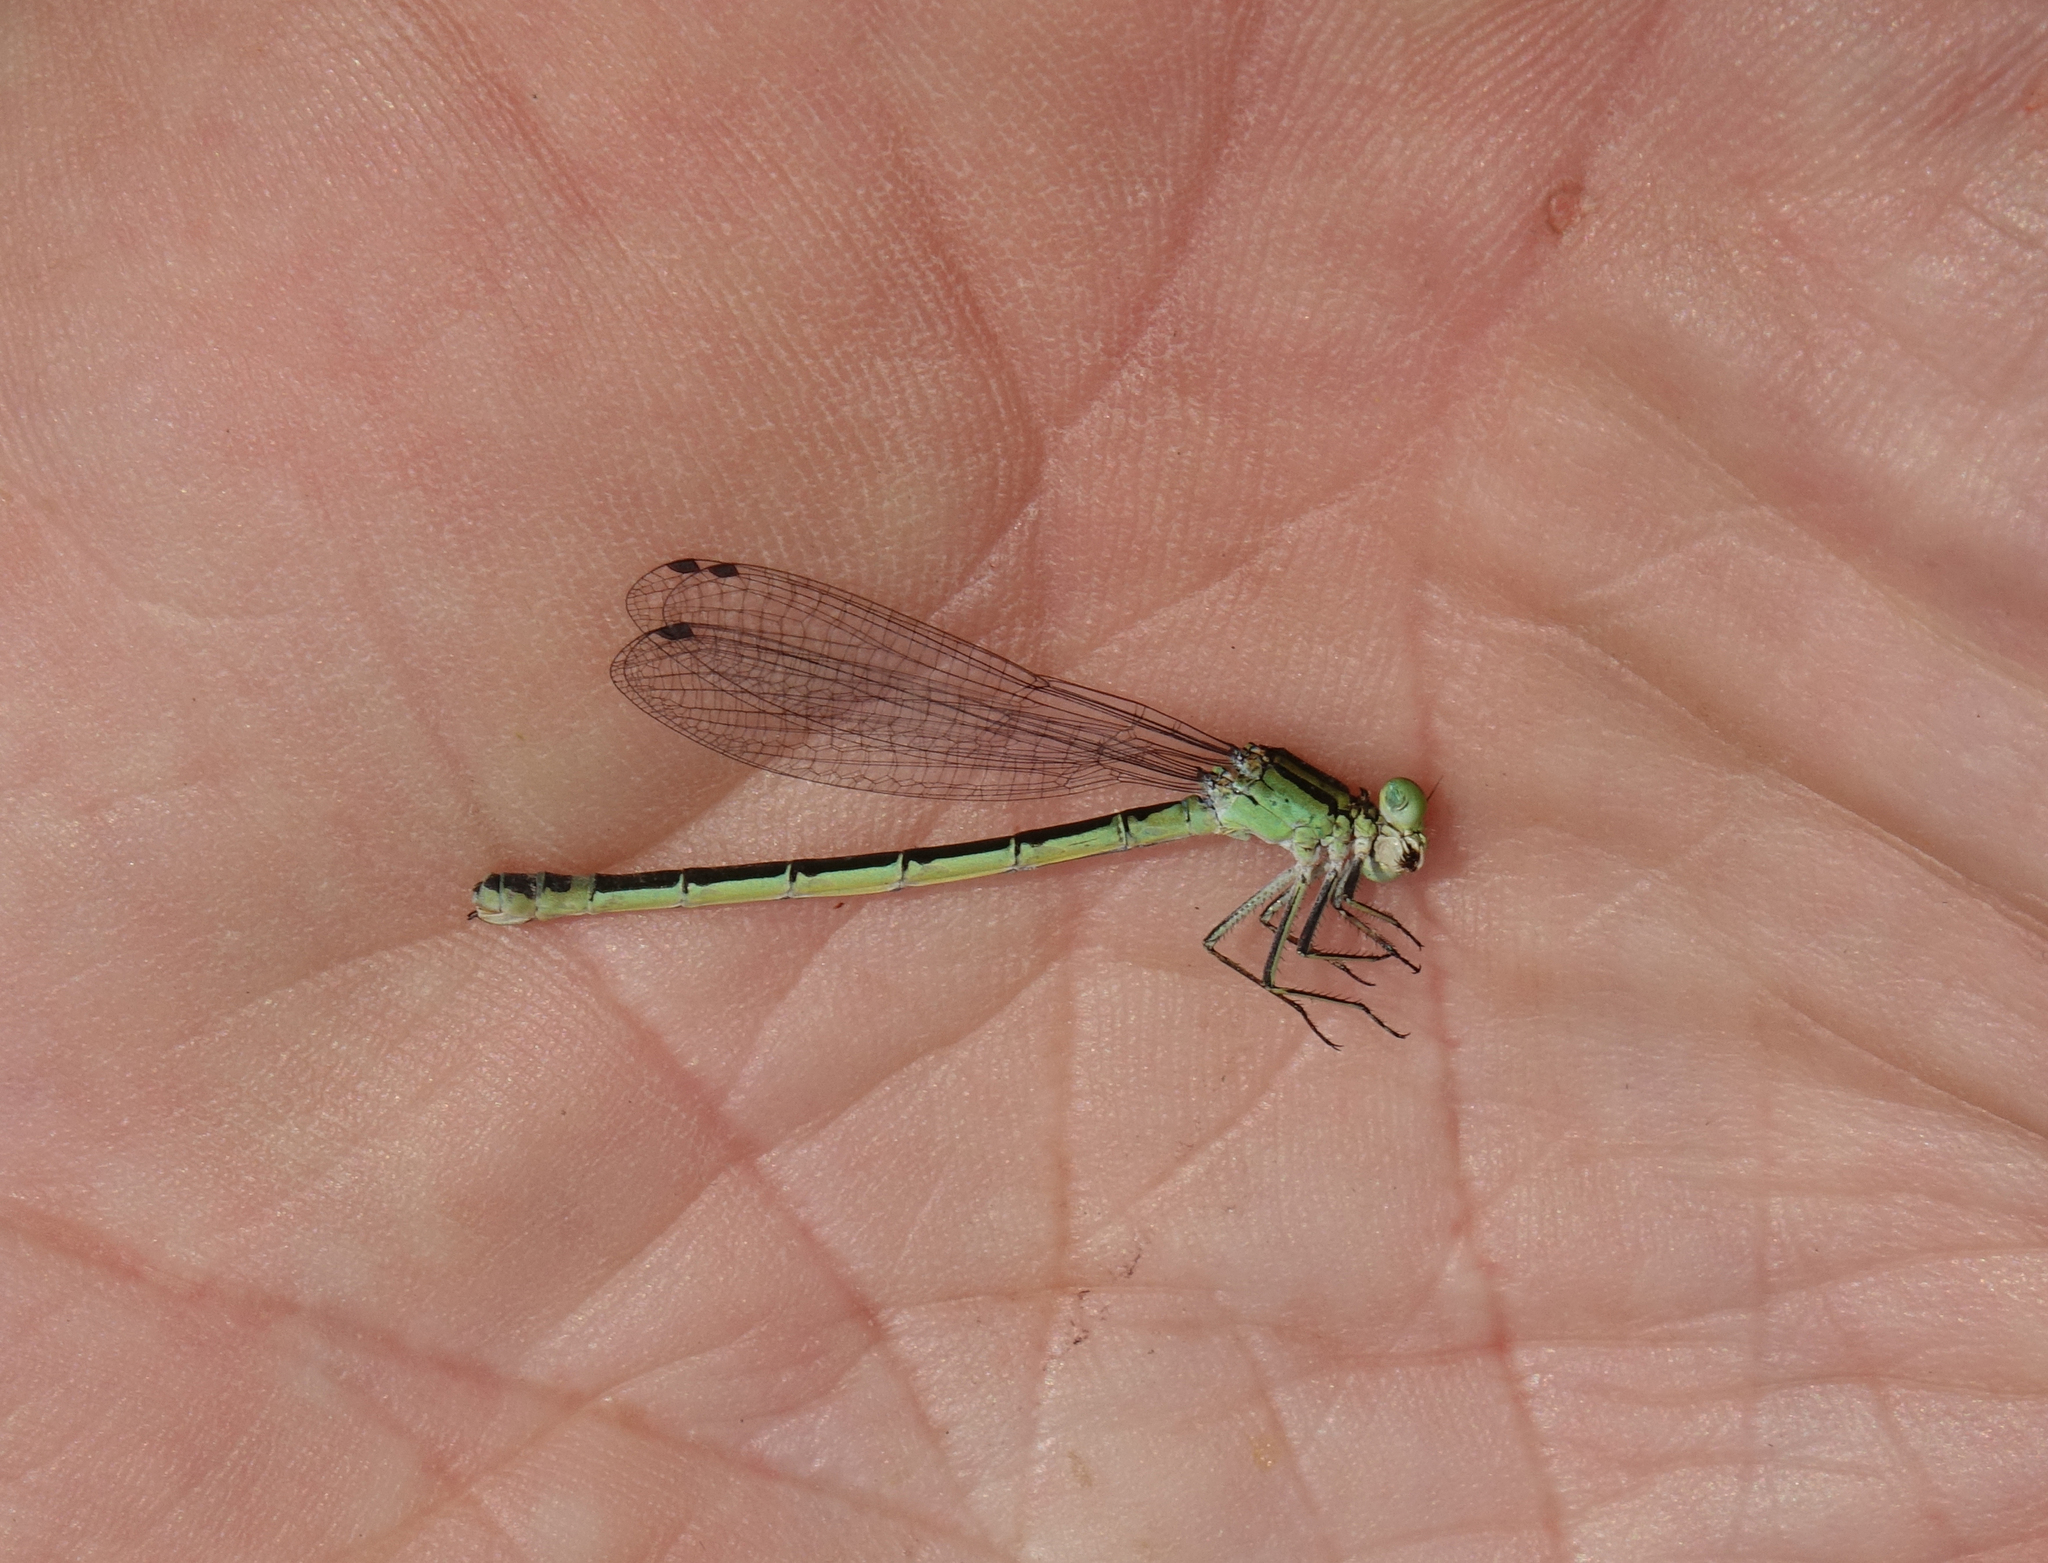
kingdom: Animalia
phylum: Arthropoda
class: Insecta
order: Odonata
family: Coenagrionidae
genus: Coenagrion
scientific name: Coenagrion lunulatum
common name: Irish damselfly
